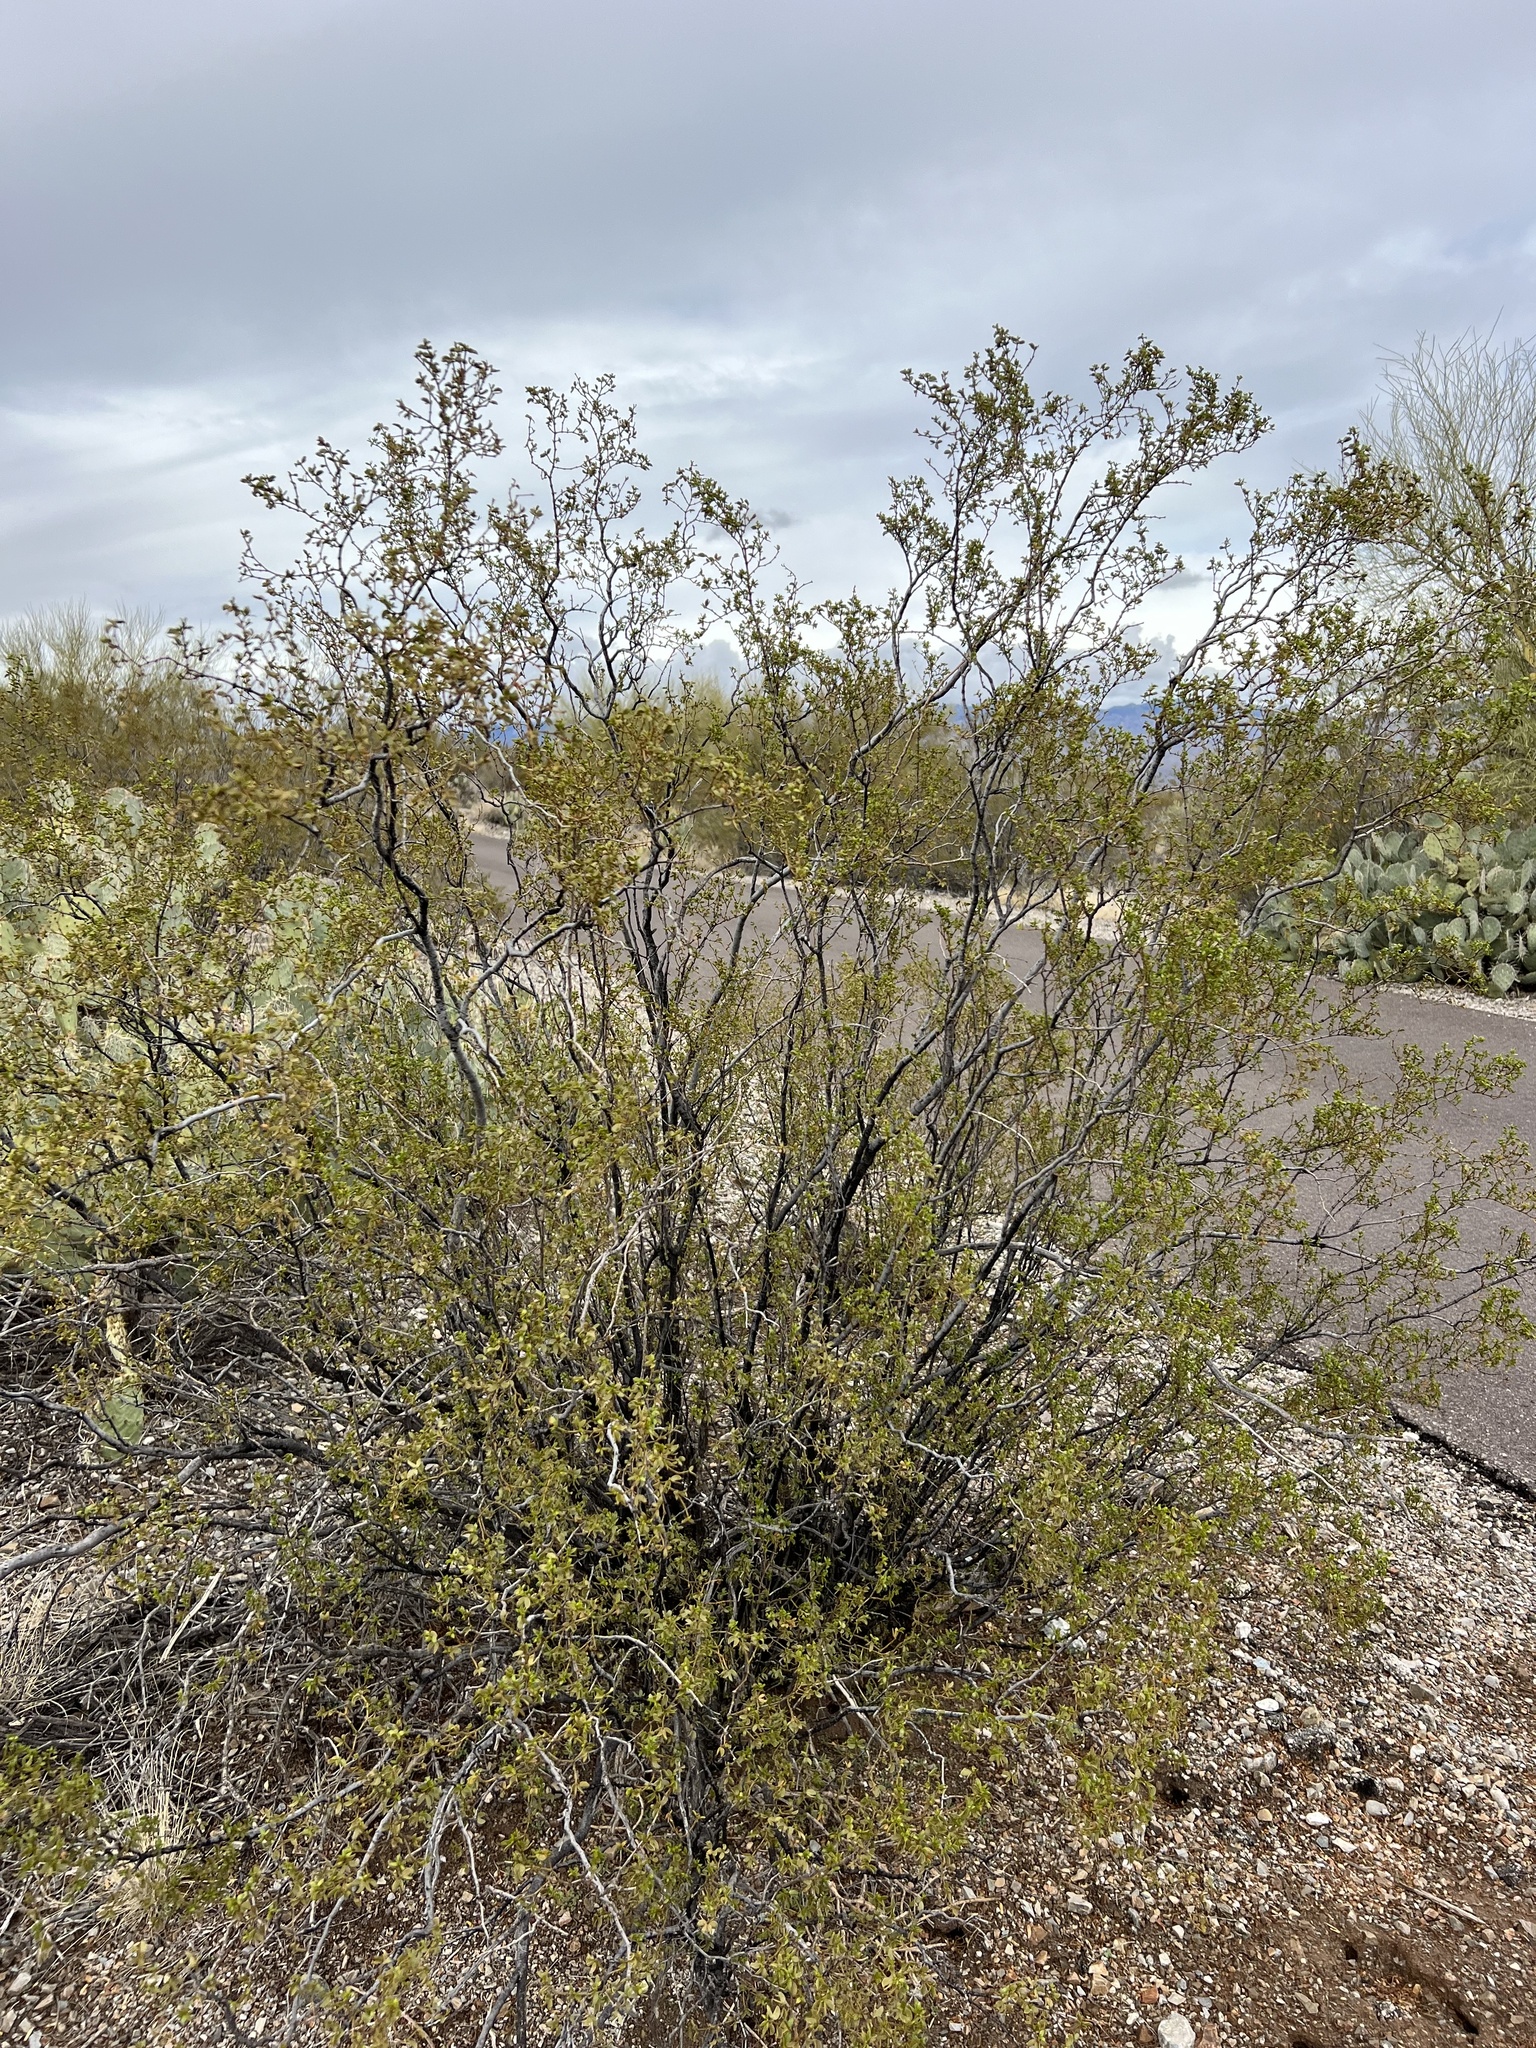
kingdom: Plantae
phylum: Tracheophyta
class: Magnoliopsida
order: Zygophyllales
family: Zygophyllaceae
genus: Larrea
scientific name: Larrea tridentata
